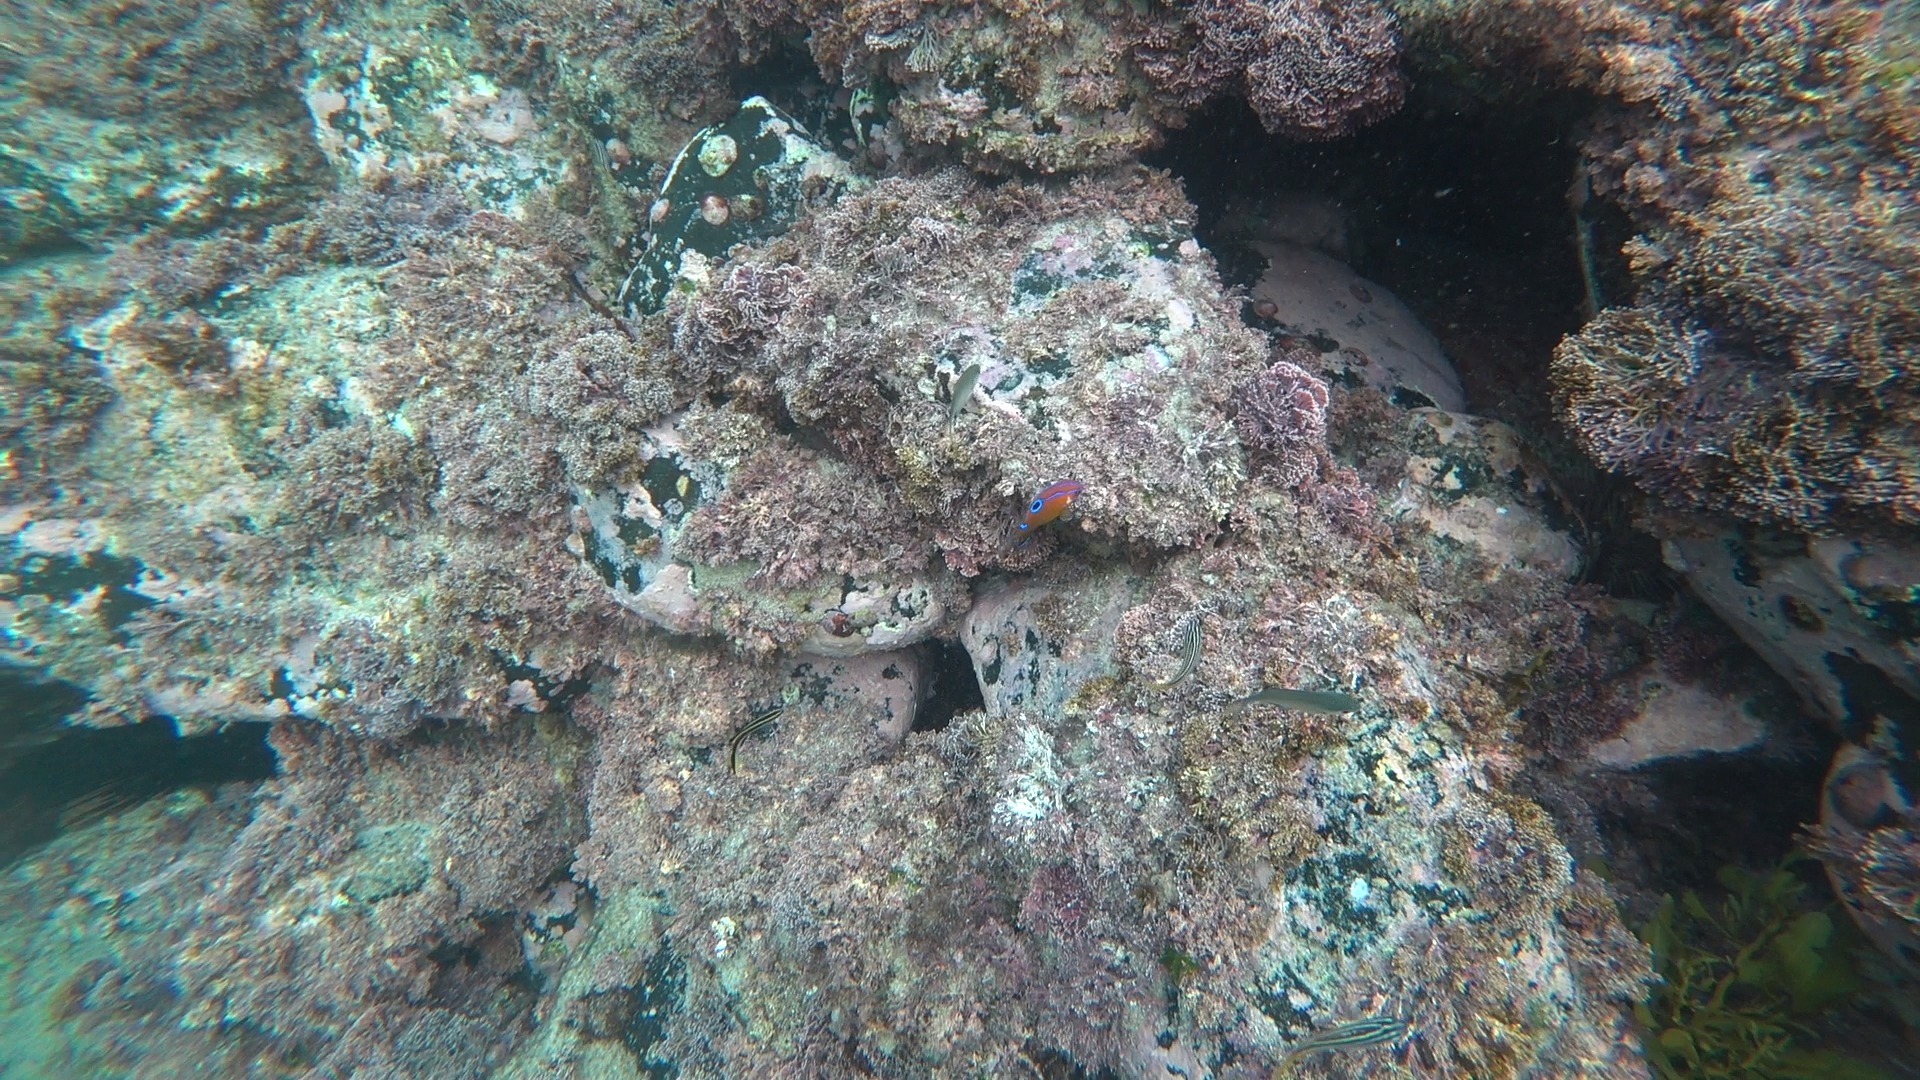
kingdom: Animalia
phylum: Chordata
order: Perciformes
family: Pomacentridae
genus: Parma
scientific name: Parma microlepis
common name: White-ear
